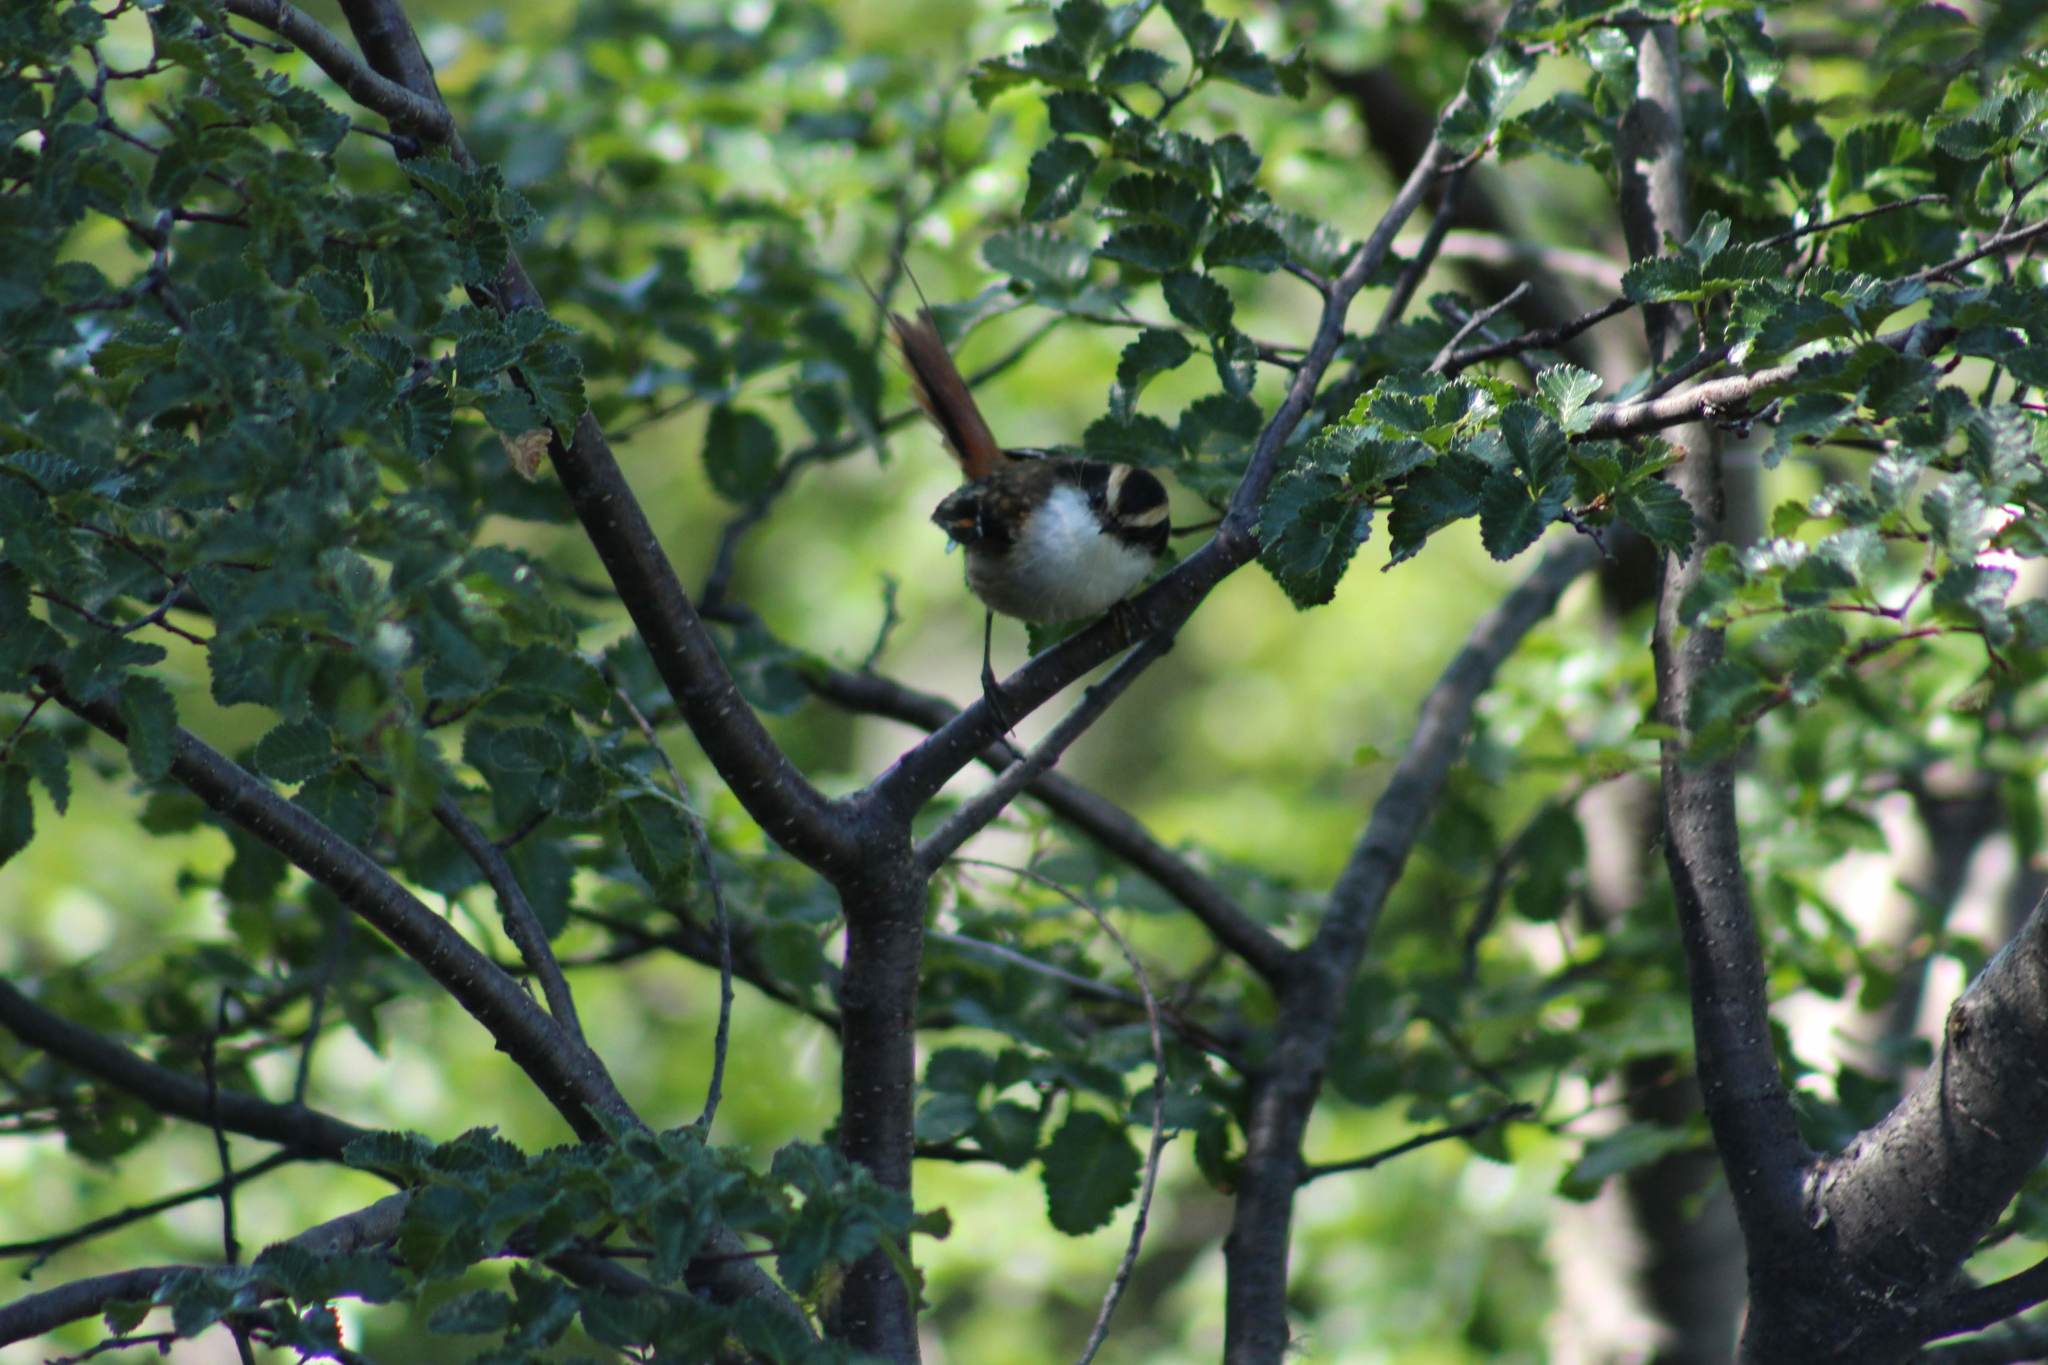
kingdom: Animalia
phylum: Chordata
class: Aves
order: Passeriformes
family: Furnariidae
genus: Aphrastura
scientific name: Aphrastura spinicauda
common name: Thorn-tailed rayadito
